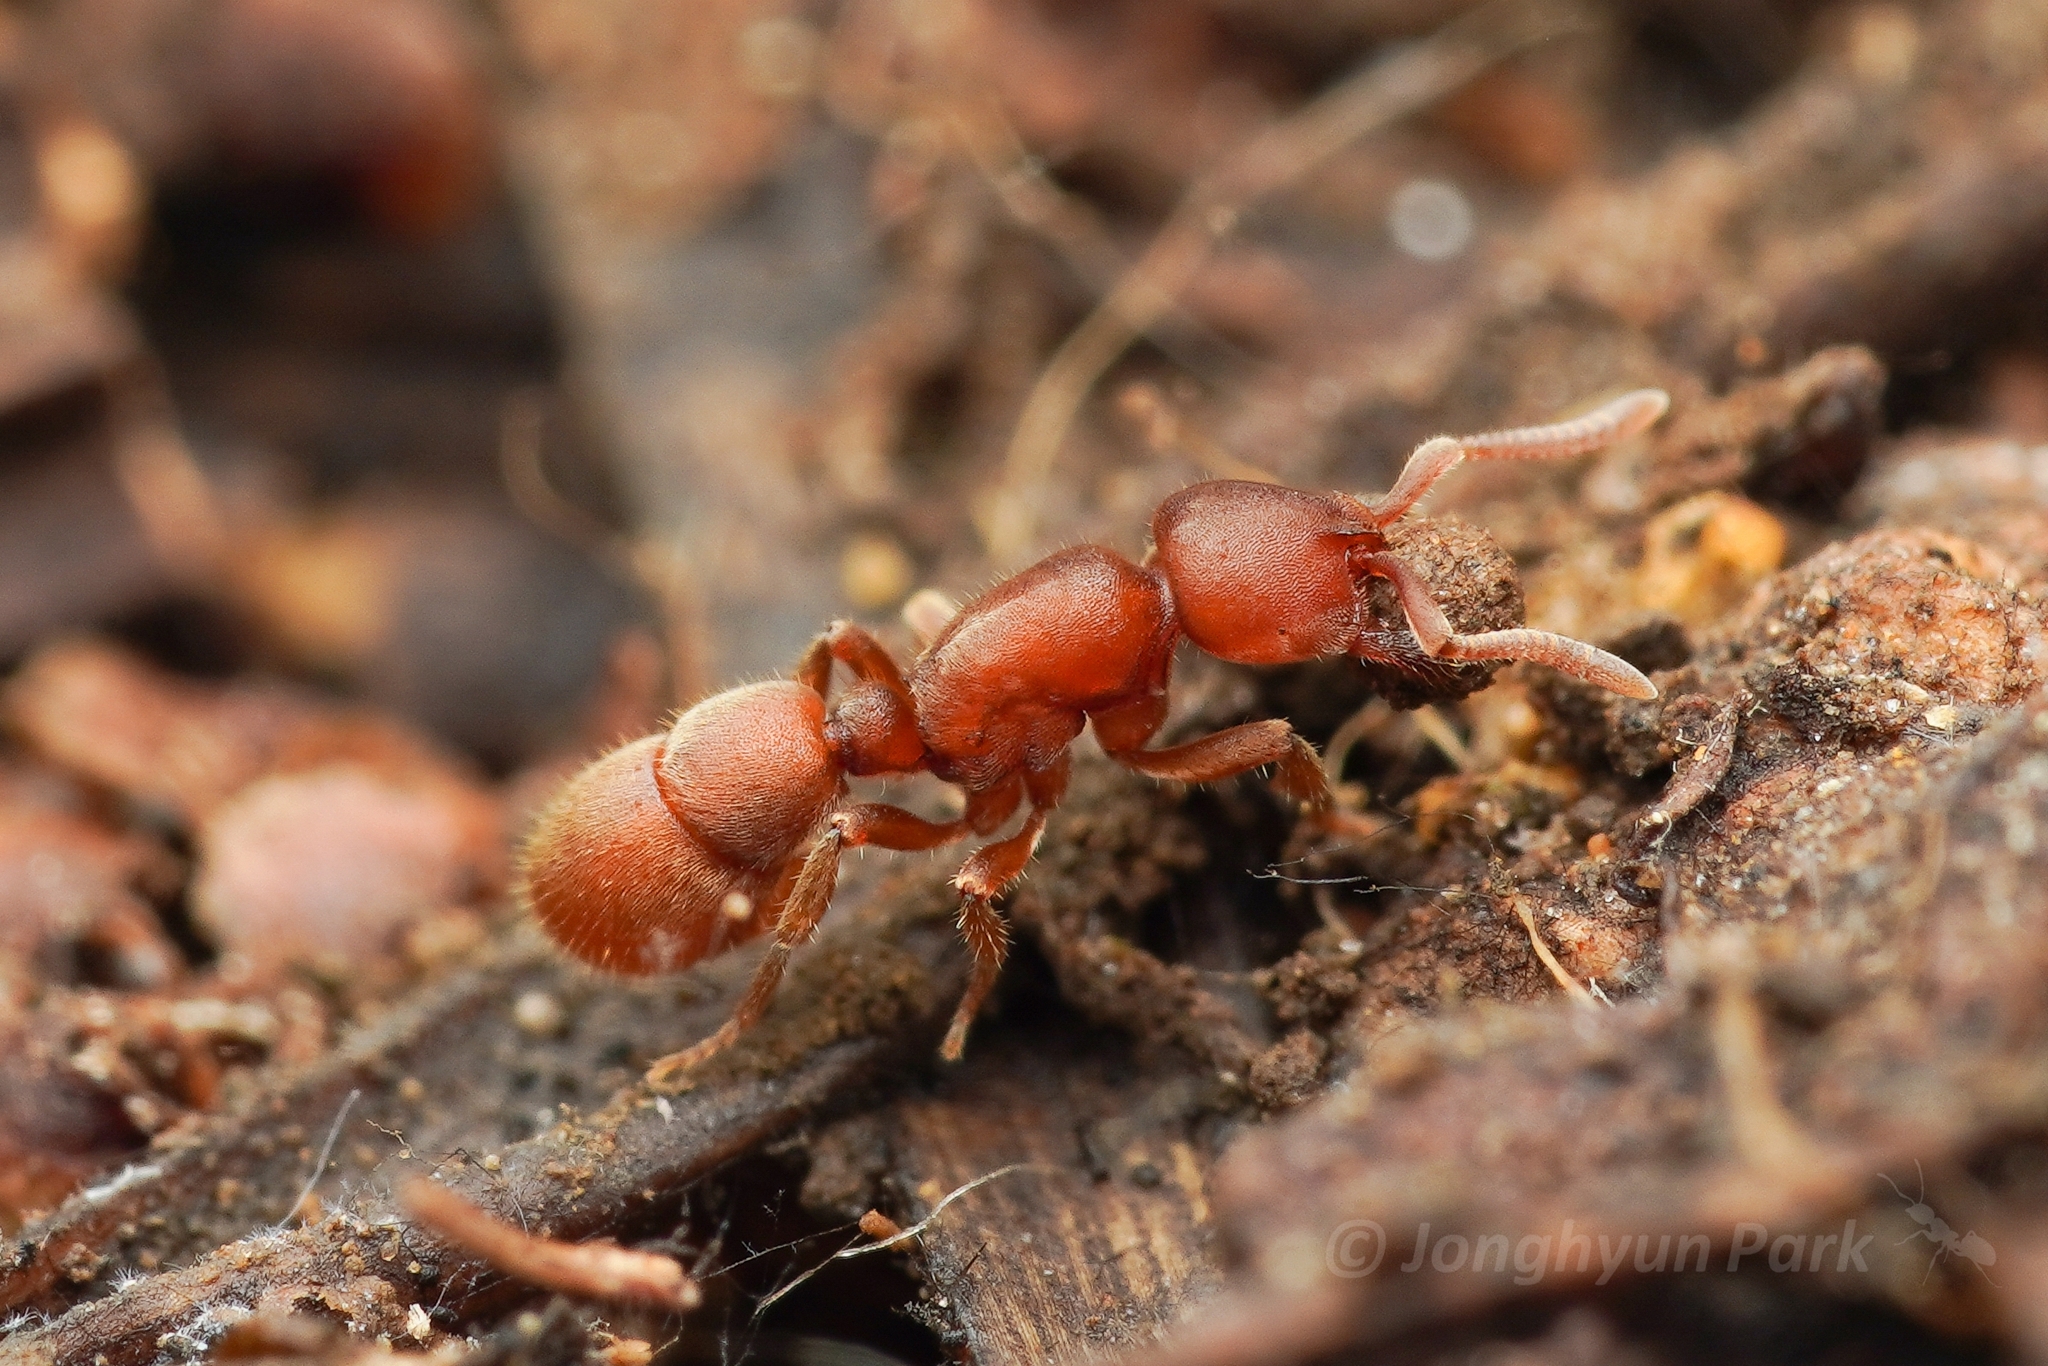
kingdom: Animalia
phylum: Arthropoda
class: Insecta
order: Hymenoptera
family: Formicidae
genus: Proceratium
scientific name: Proceratium itoi
